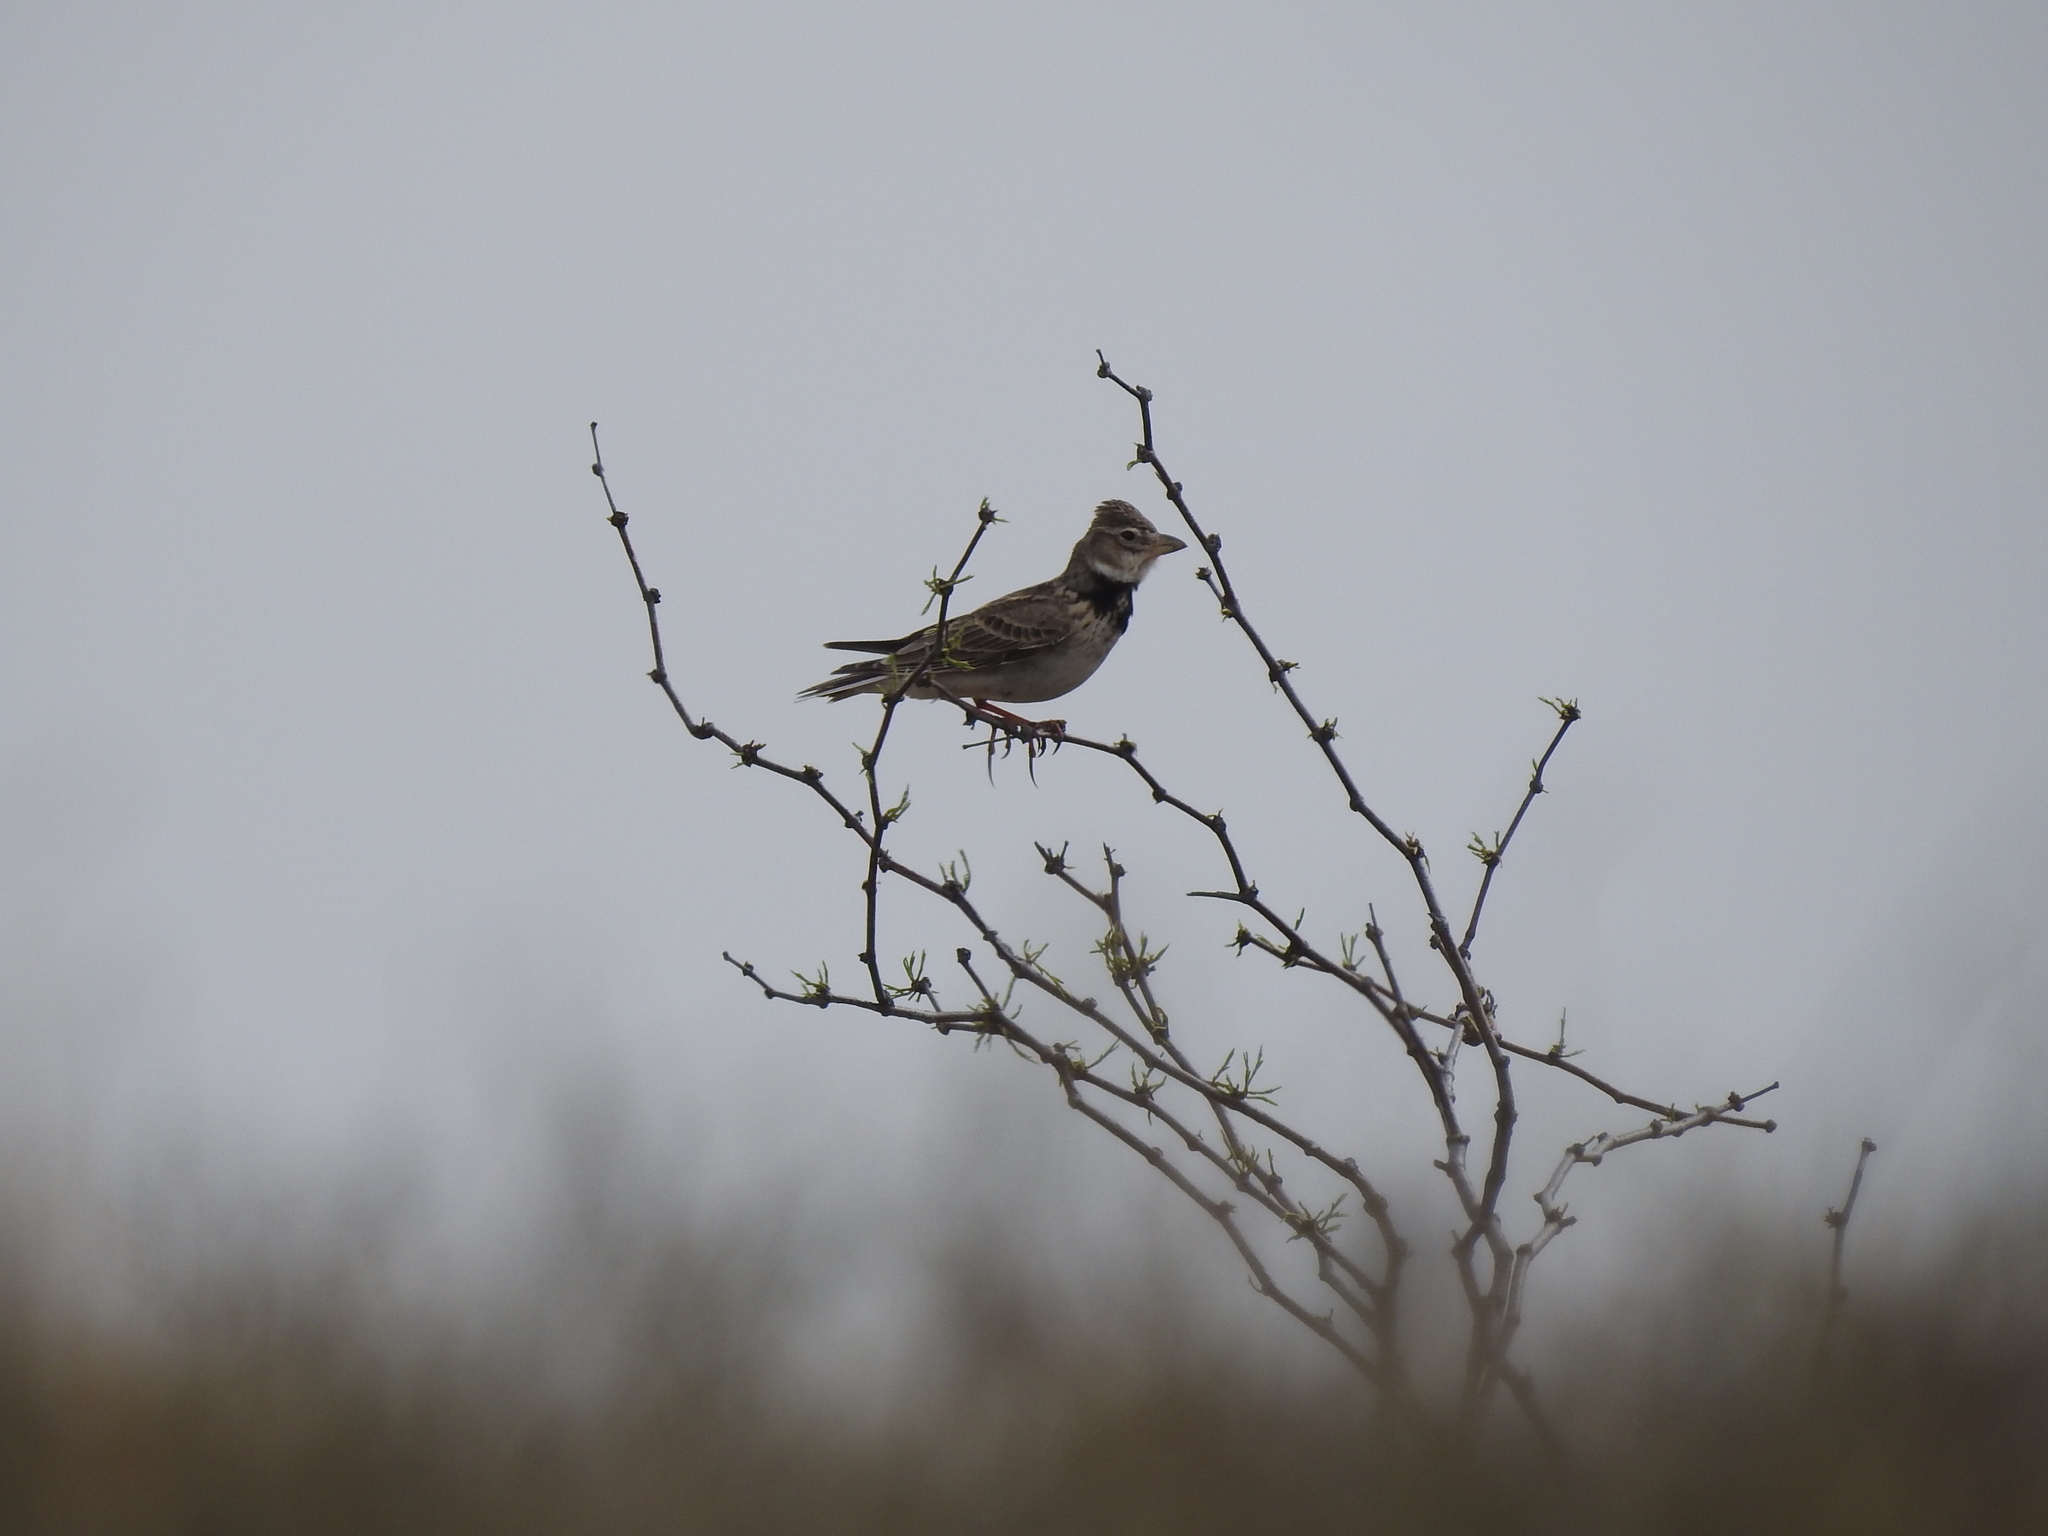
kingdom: Animalia
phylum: Chordata
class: Aves
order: Passeriformes
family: Alaudidae
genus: Melanocorypha
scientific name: Melanocorypha calandra
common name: Calandra lark
